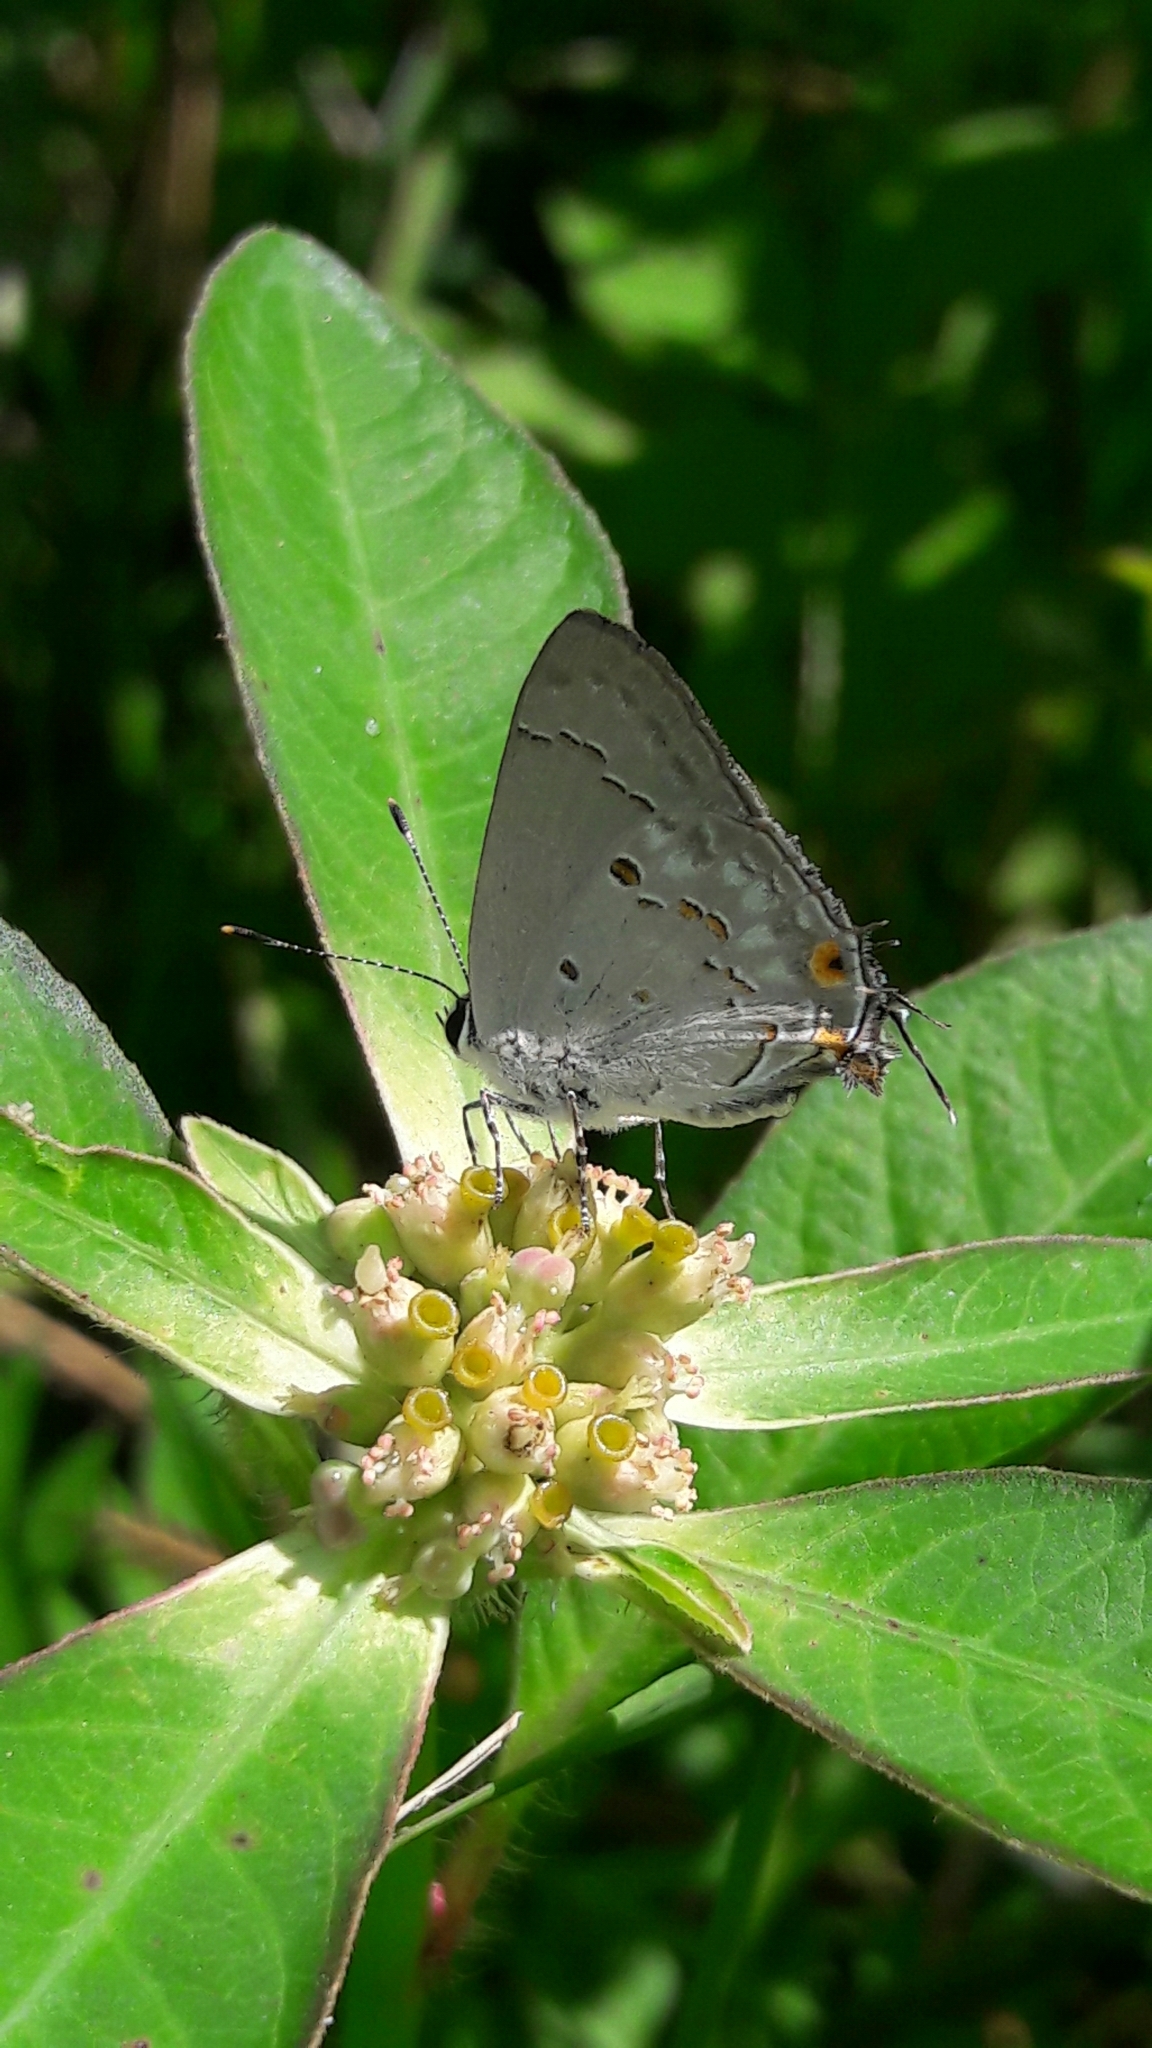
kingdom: Animalia
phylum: Arthropoda
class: Insecta
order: Lepidoptera
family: Lycaenidae
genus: Strymon
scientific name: Strymon
